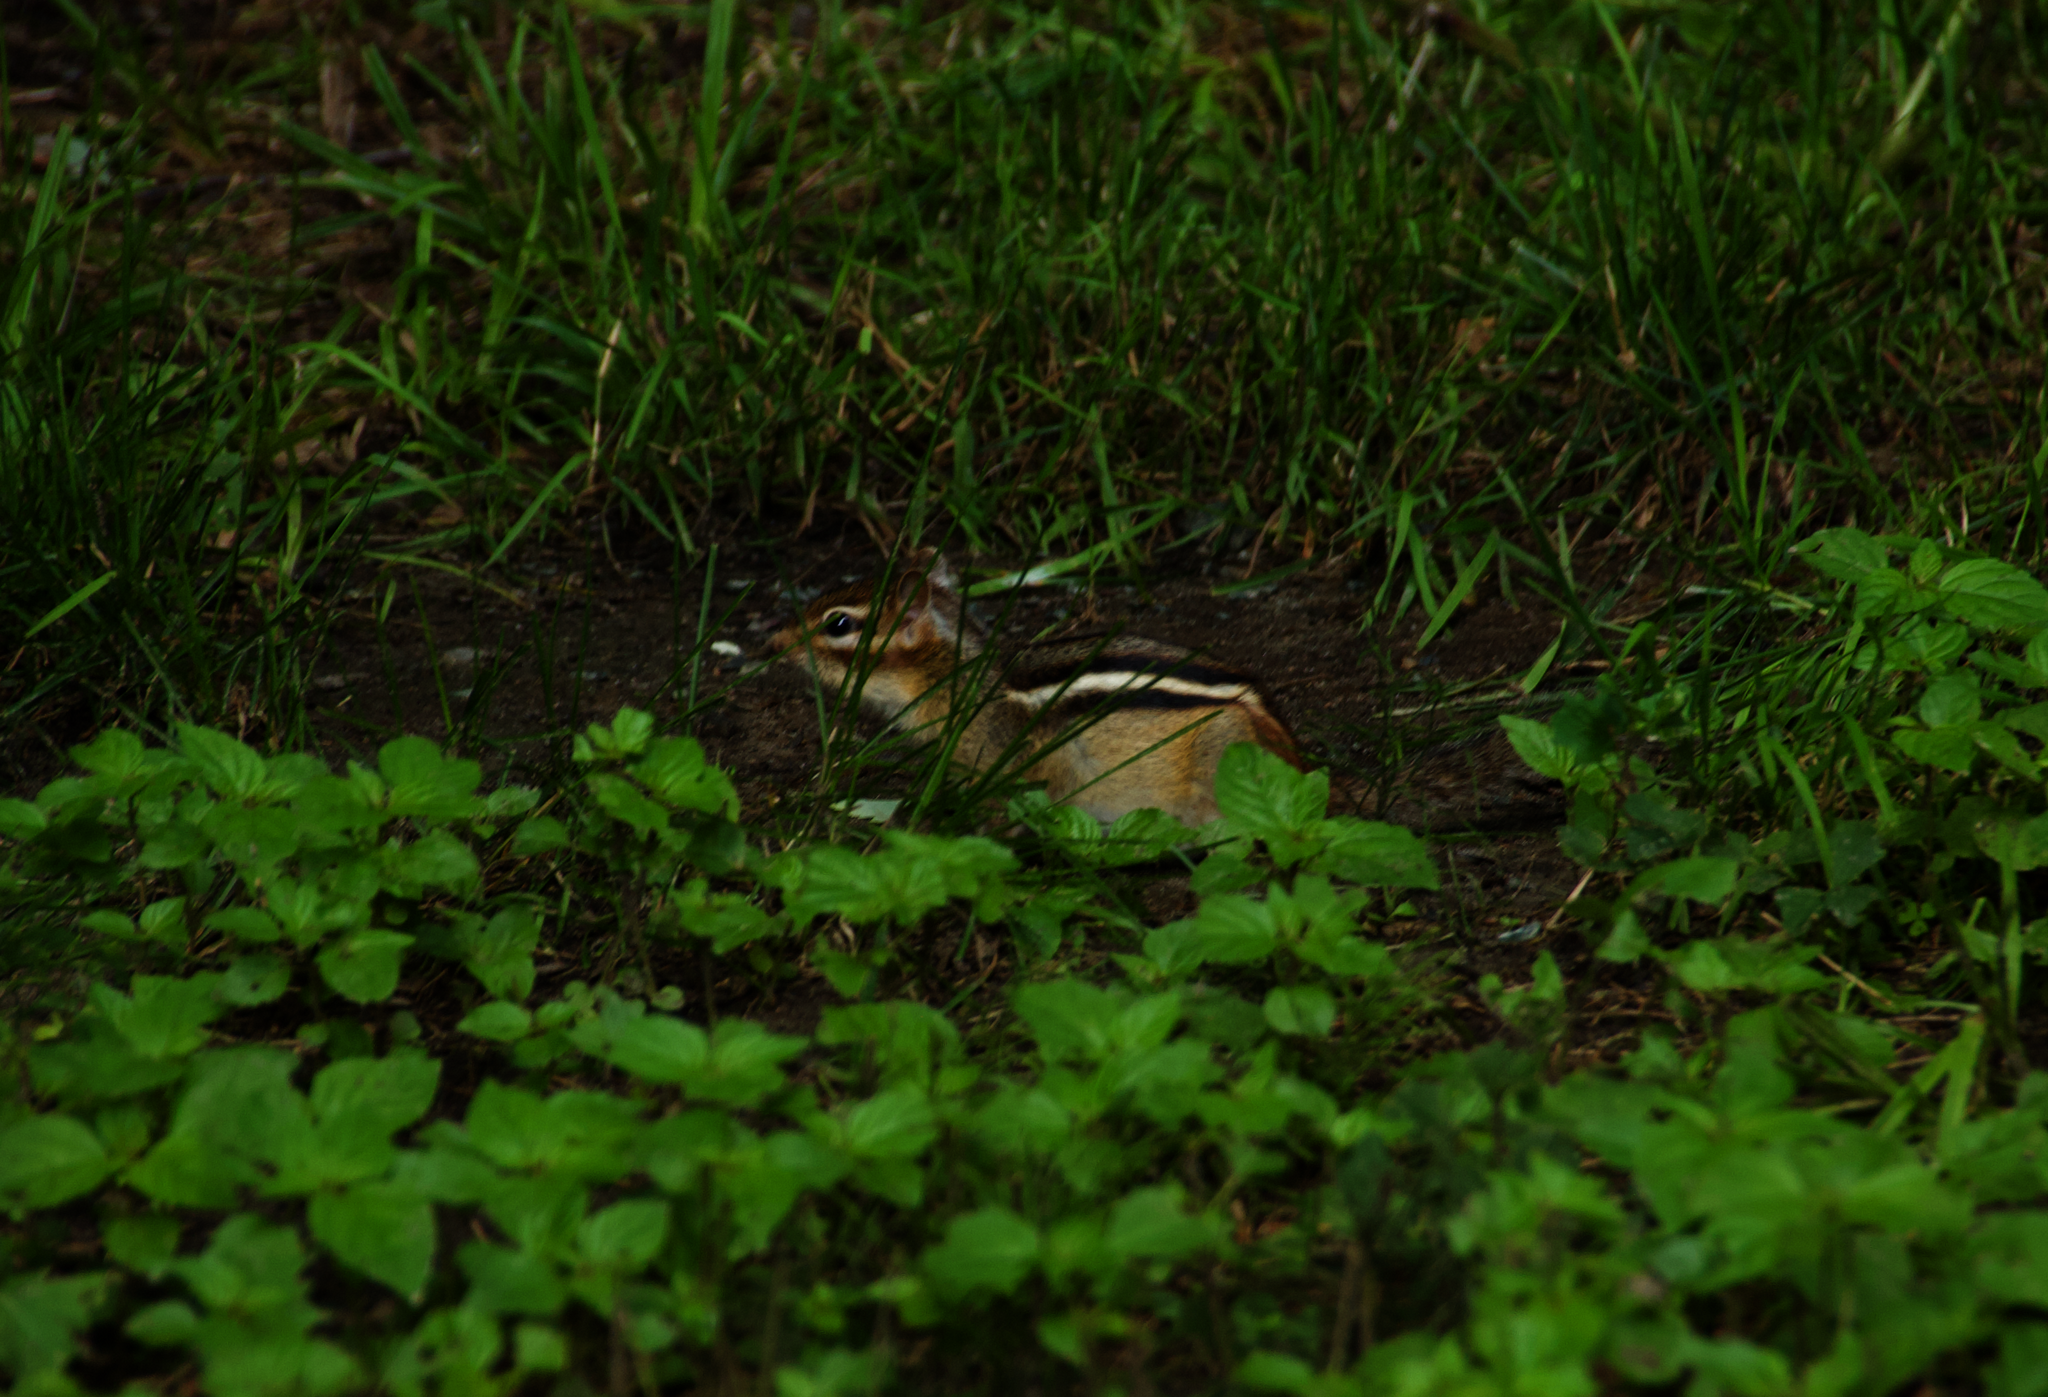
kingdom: Animalia
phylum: Chordata
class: Mammalia
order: Rodentia
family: Sciuridae
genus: Tamias
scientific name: Tamias striatus
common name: Eastern chipmunk
